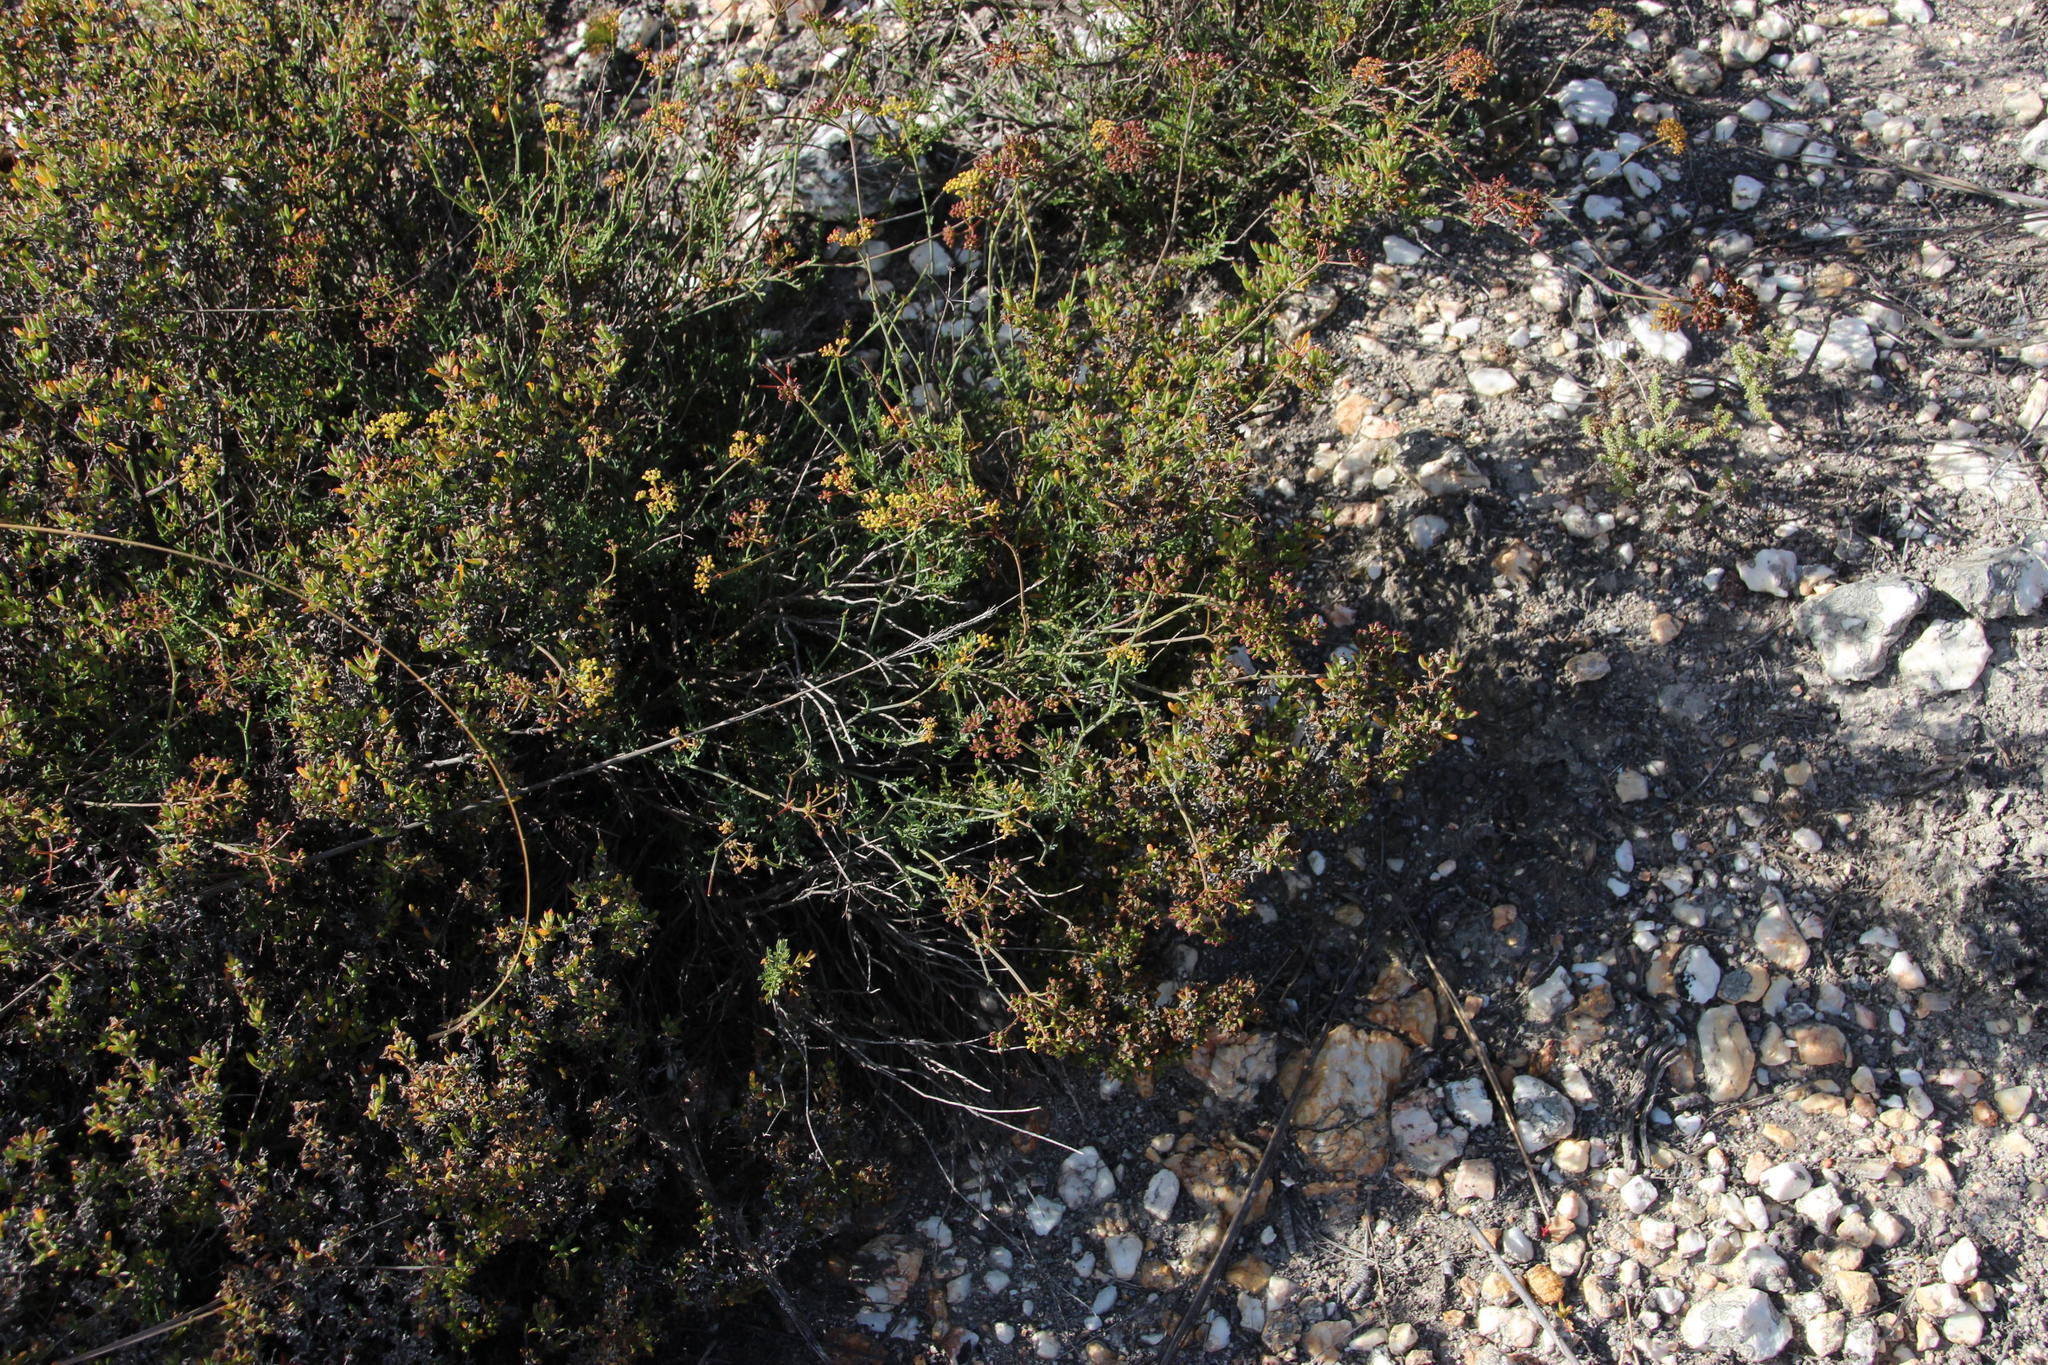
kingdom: Plantae
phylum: Tracheophyta
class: Magnoliopsida
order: Apiales
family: Apiaceae
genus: Notobubon
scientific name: Notobubon collinum
